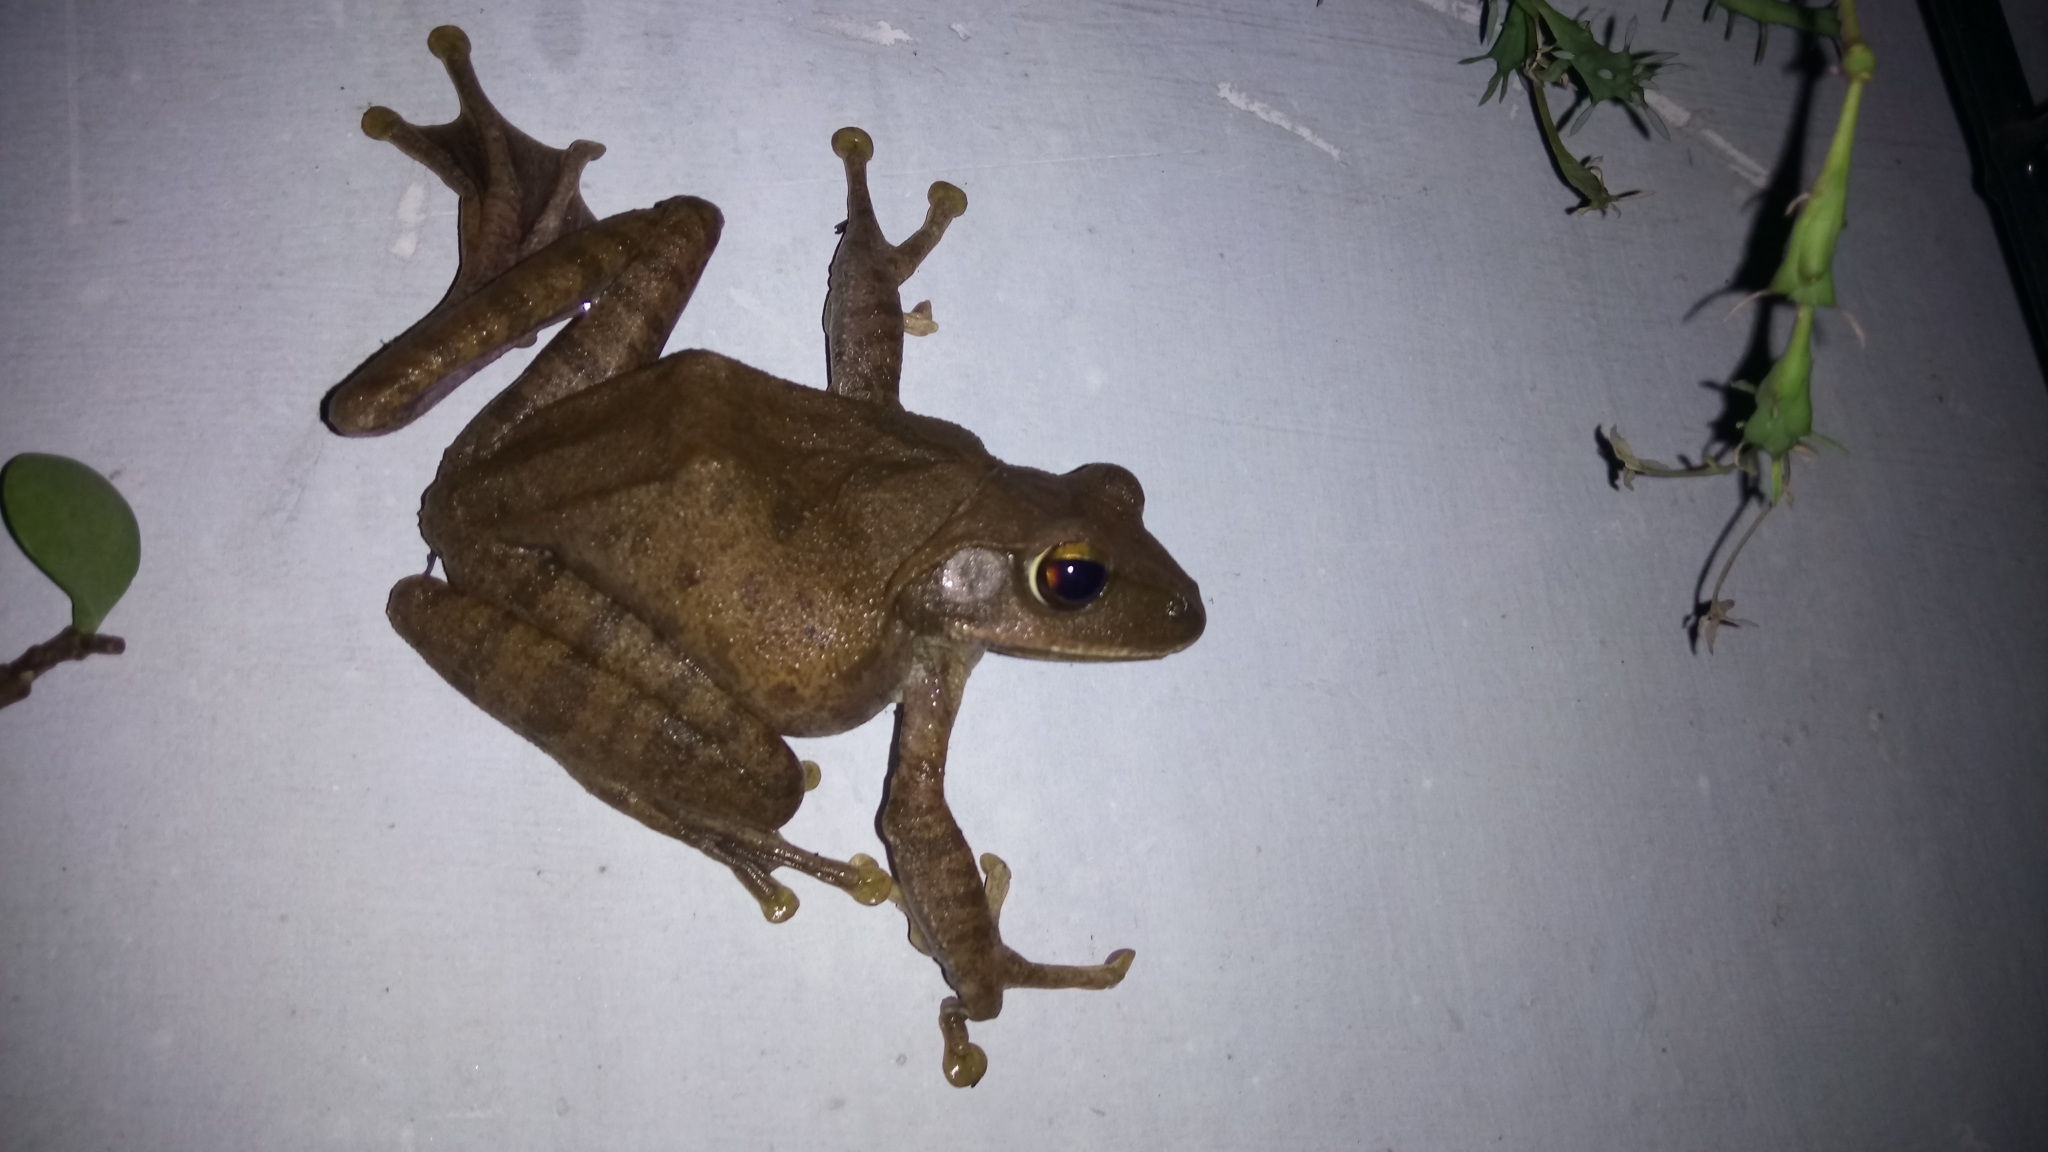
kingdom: Animalia
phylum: Chordata
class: Amphibia
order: Anura
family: Rhacophoridae
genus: Polypedates
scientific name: Polypedates megacephalus
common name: Hong kong whipping frog
